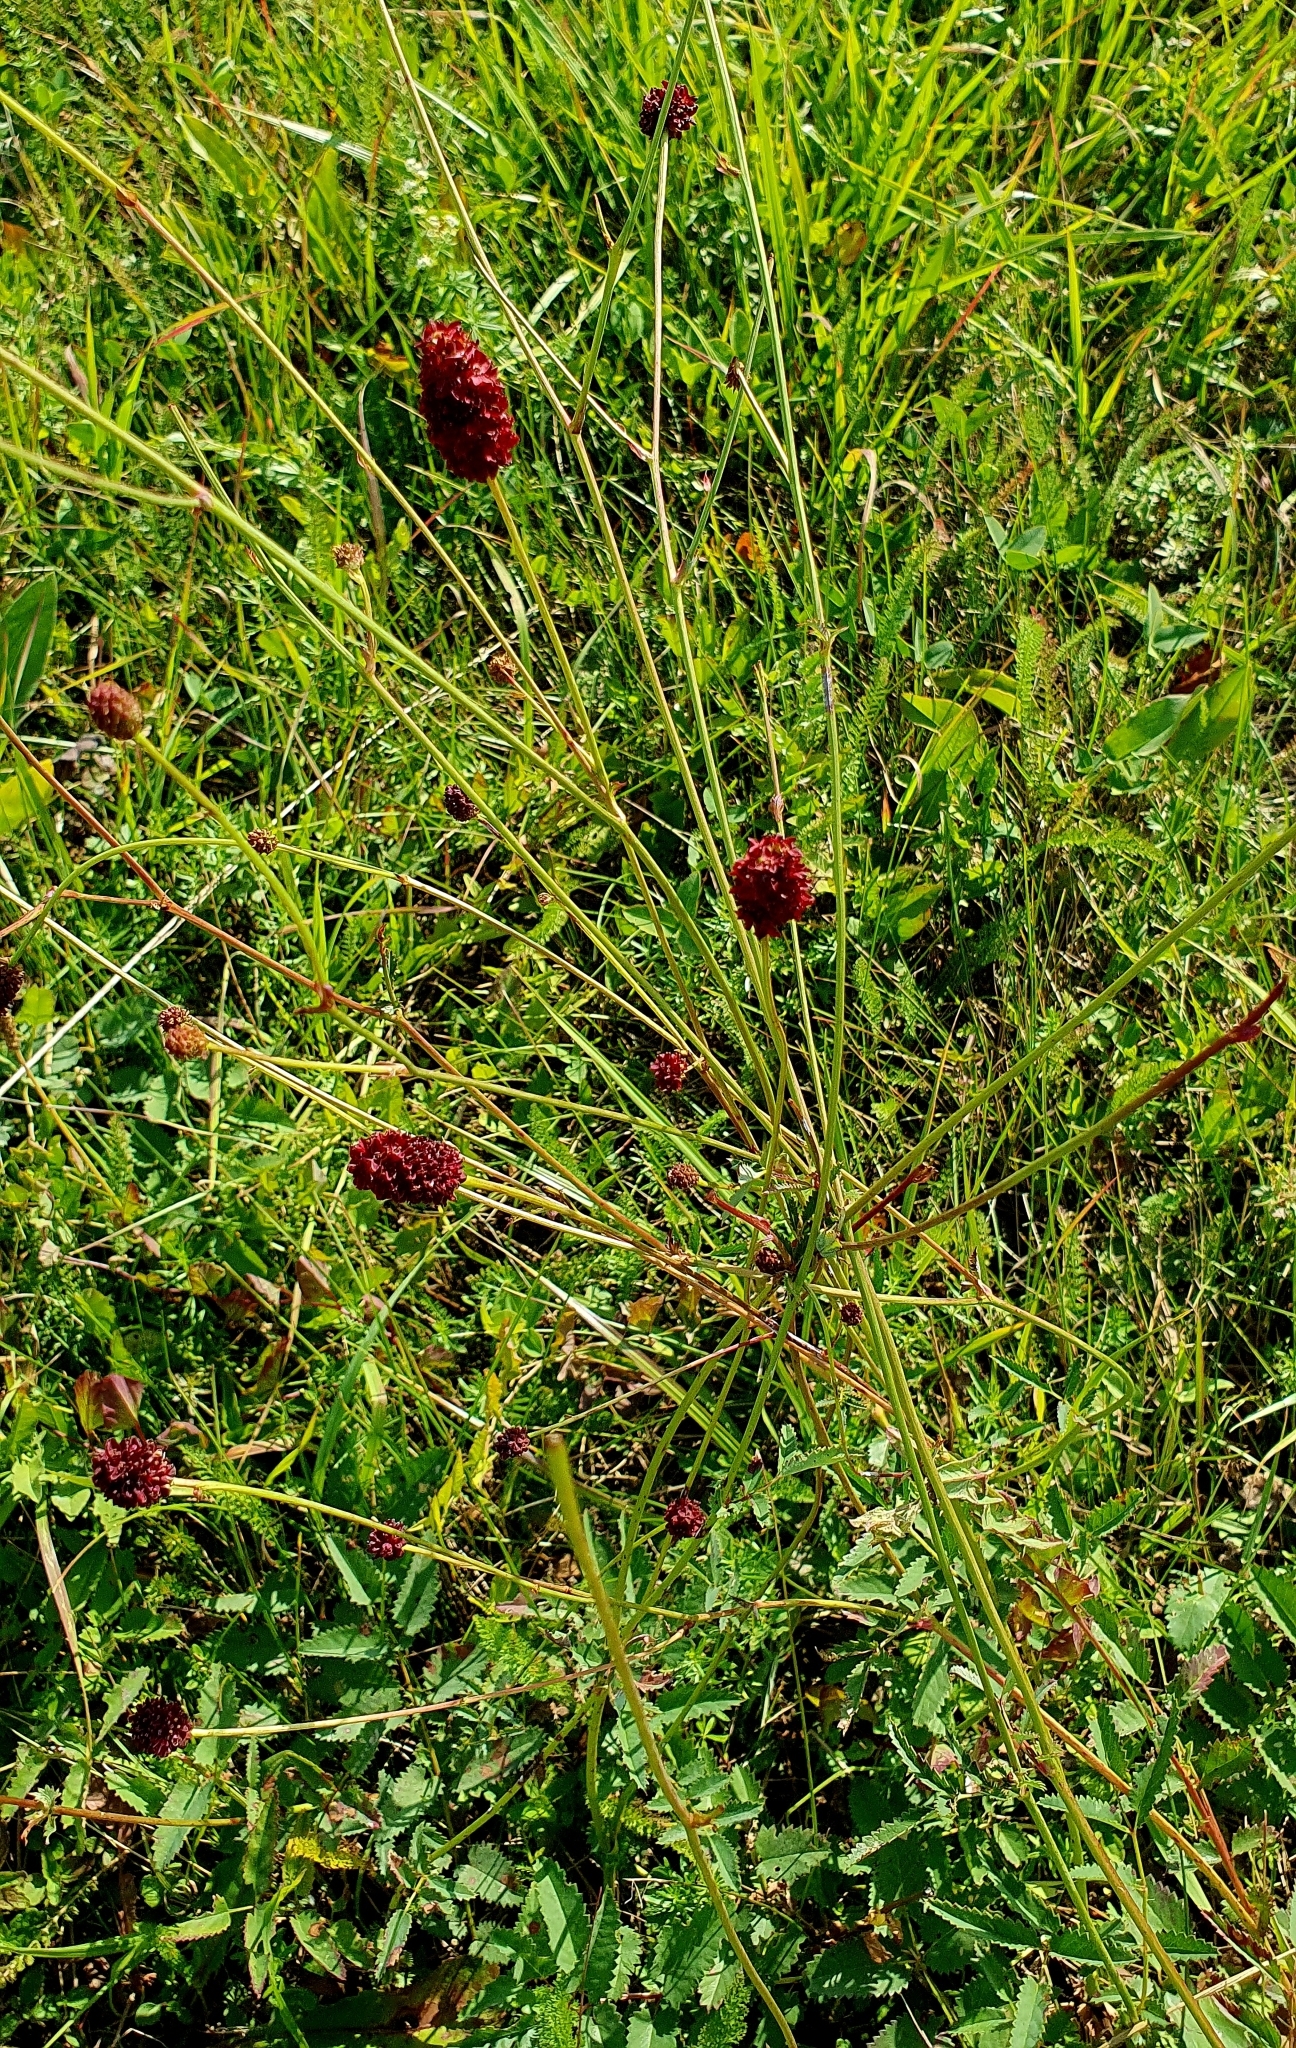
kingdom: Plantae
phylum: Tracheophyta
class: Magnoliopsida
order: Rosales
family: Rosaceae
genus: Sanguisorba
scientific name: Sanguisorba officinalis
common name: Great burnet
